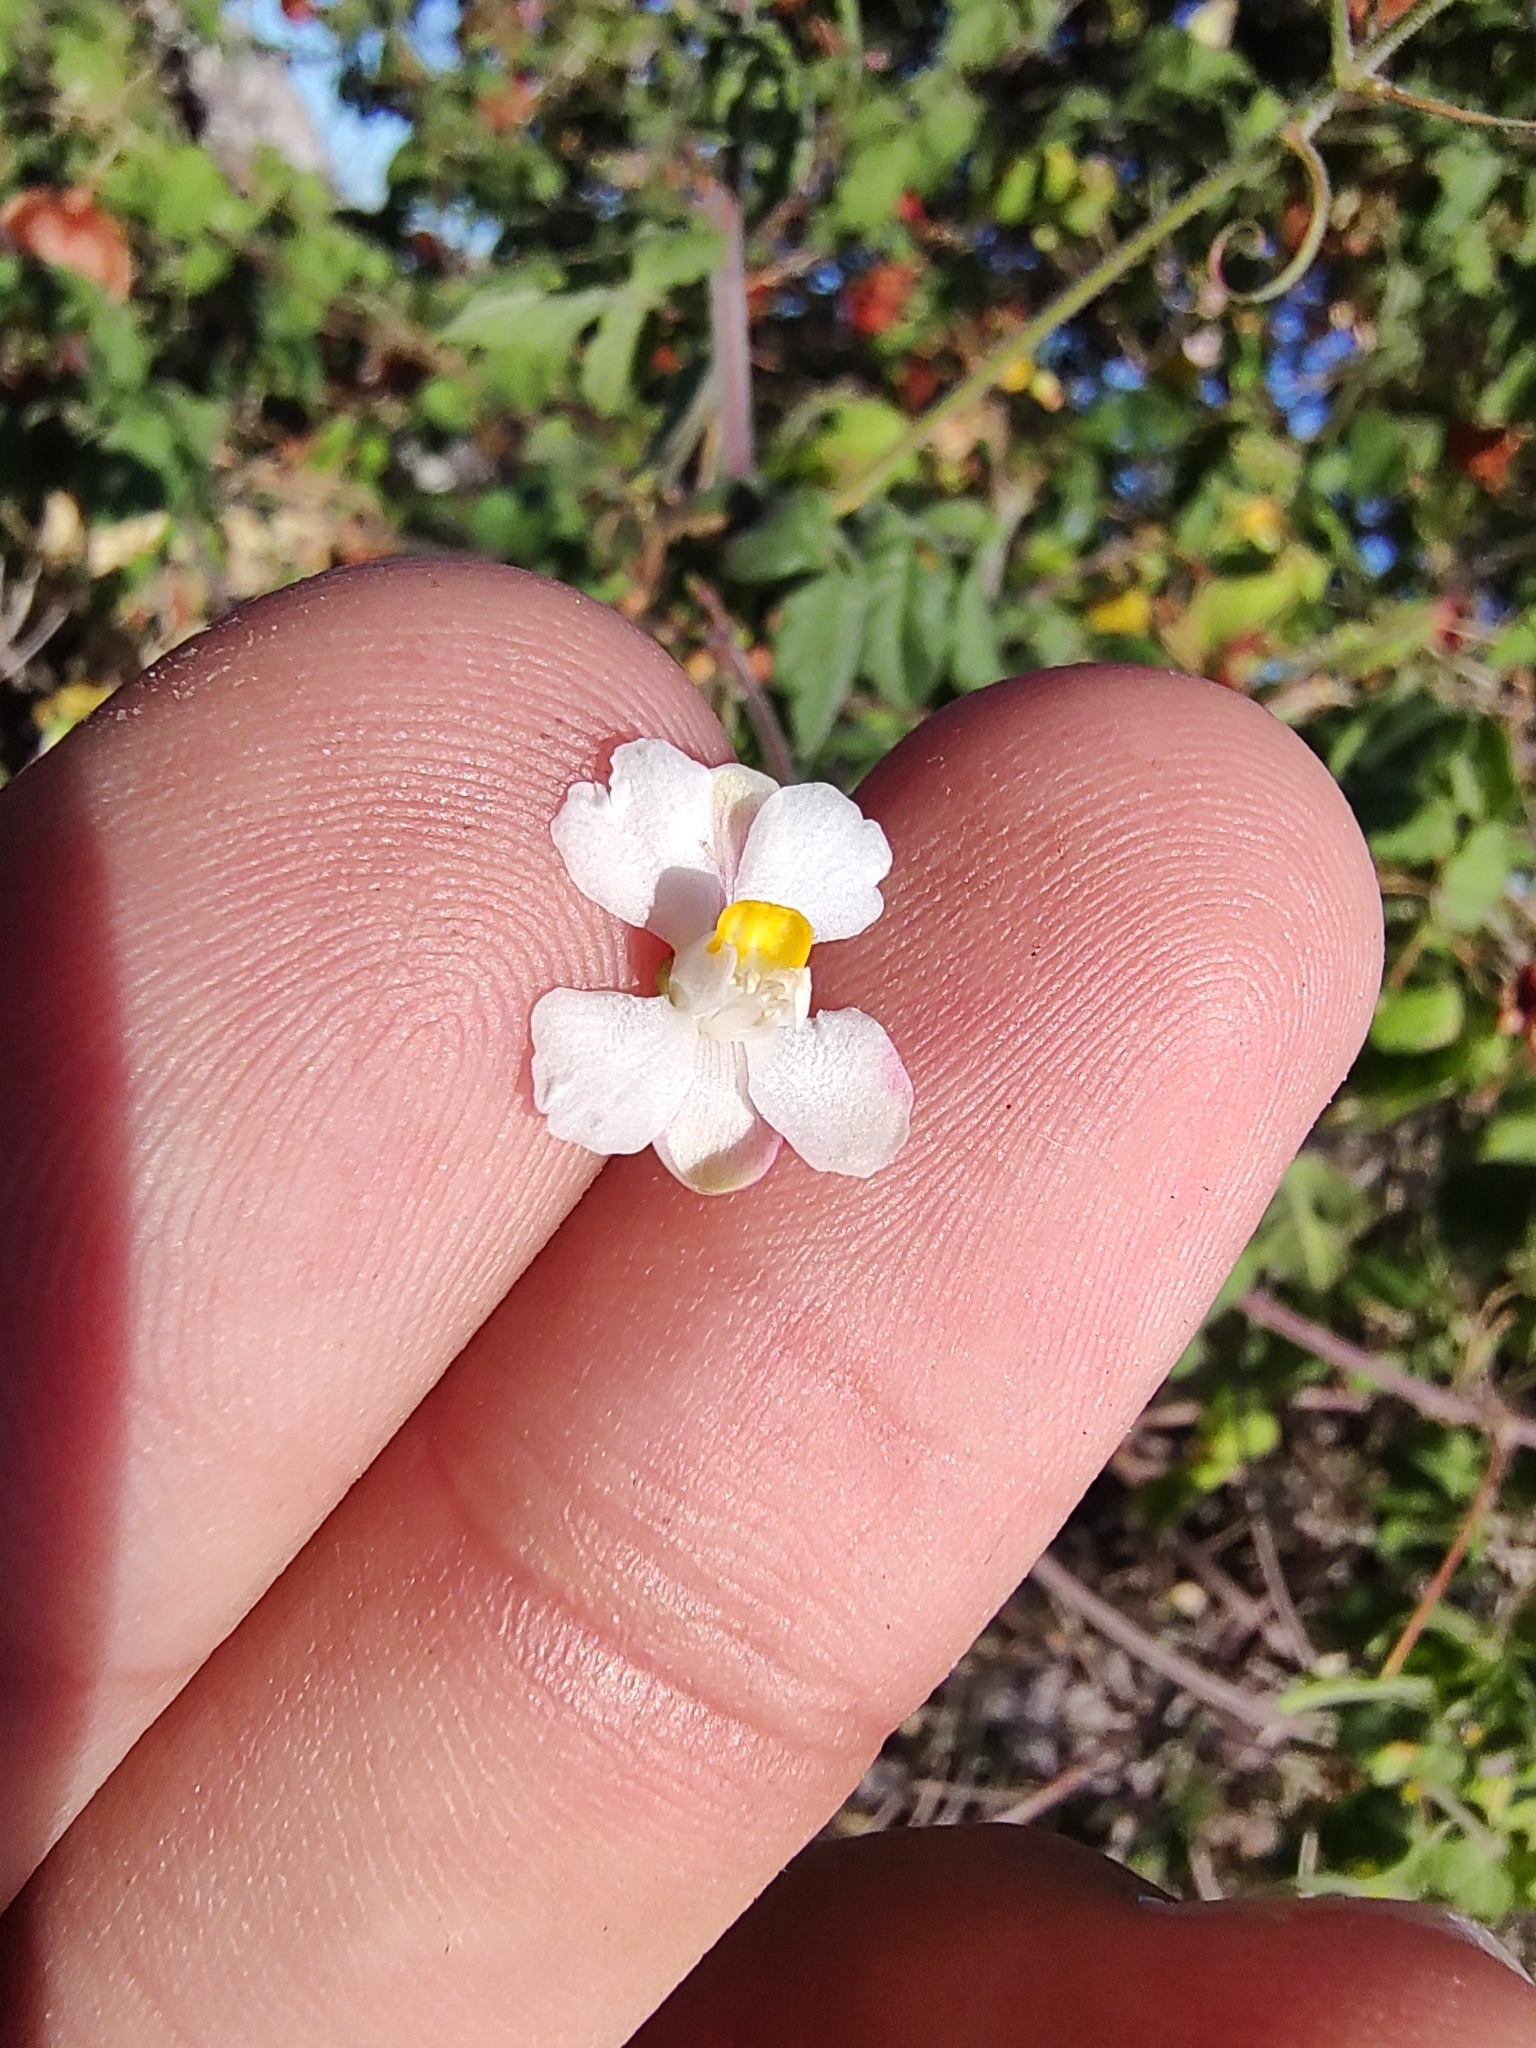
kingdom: Plantae
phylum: Tracheophyta
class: Magnoliopsida
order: Sapindales
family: Sapindaceae
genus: Cardiospermum
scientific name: Cardiospermum corindum
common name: Faux persil
